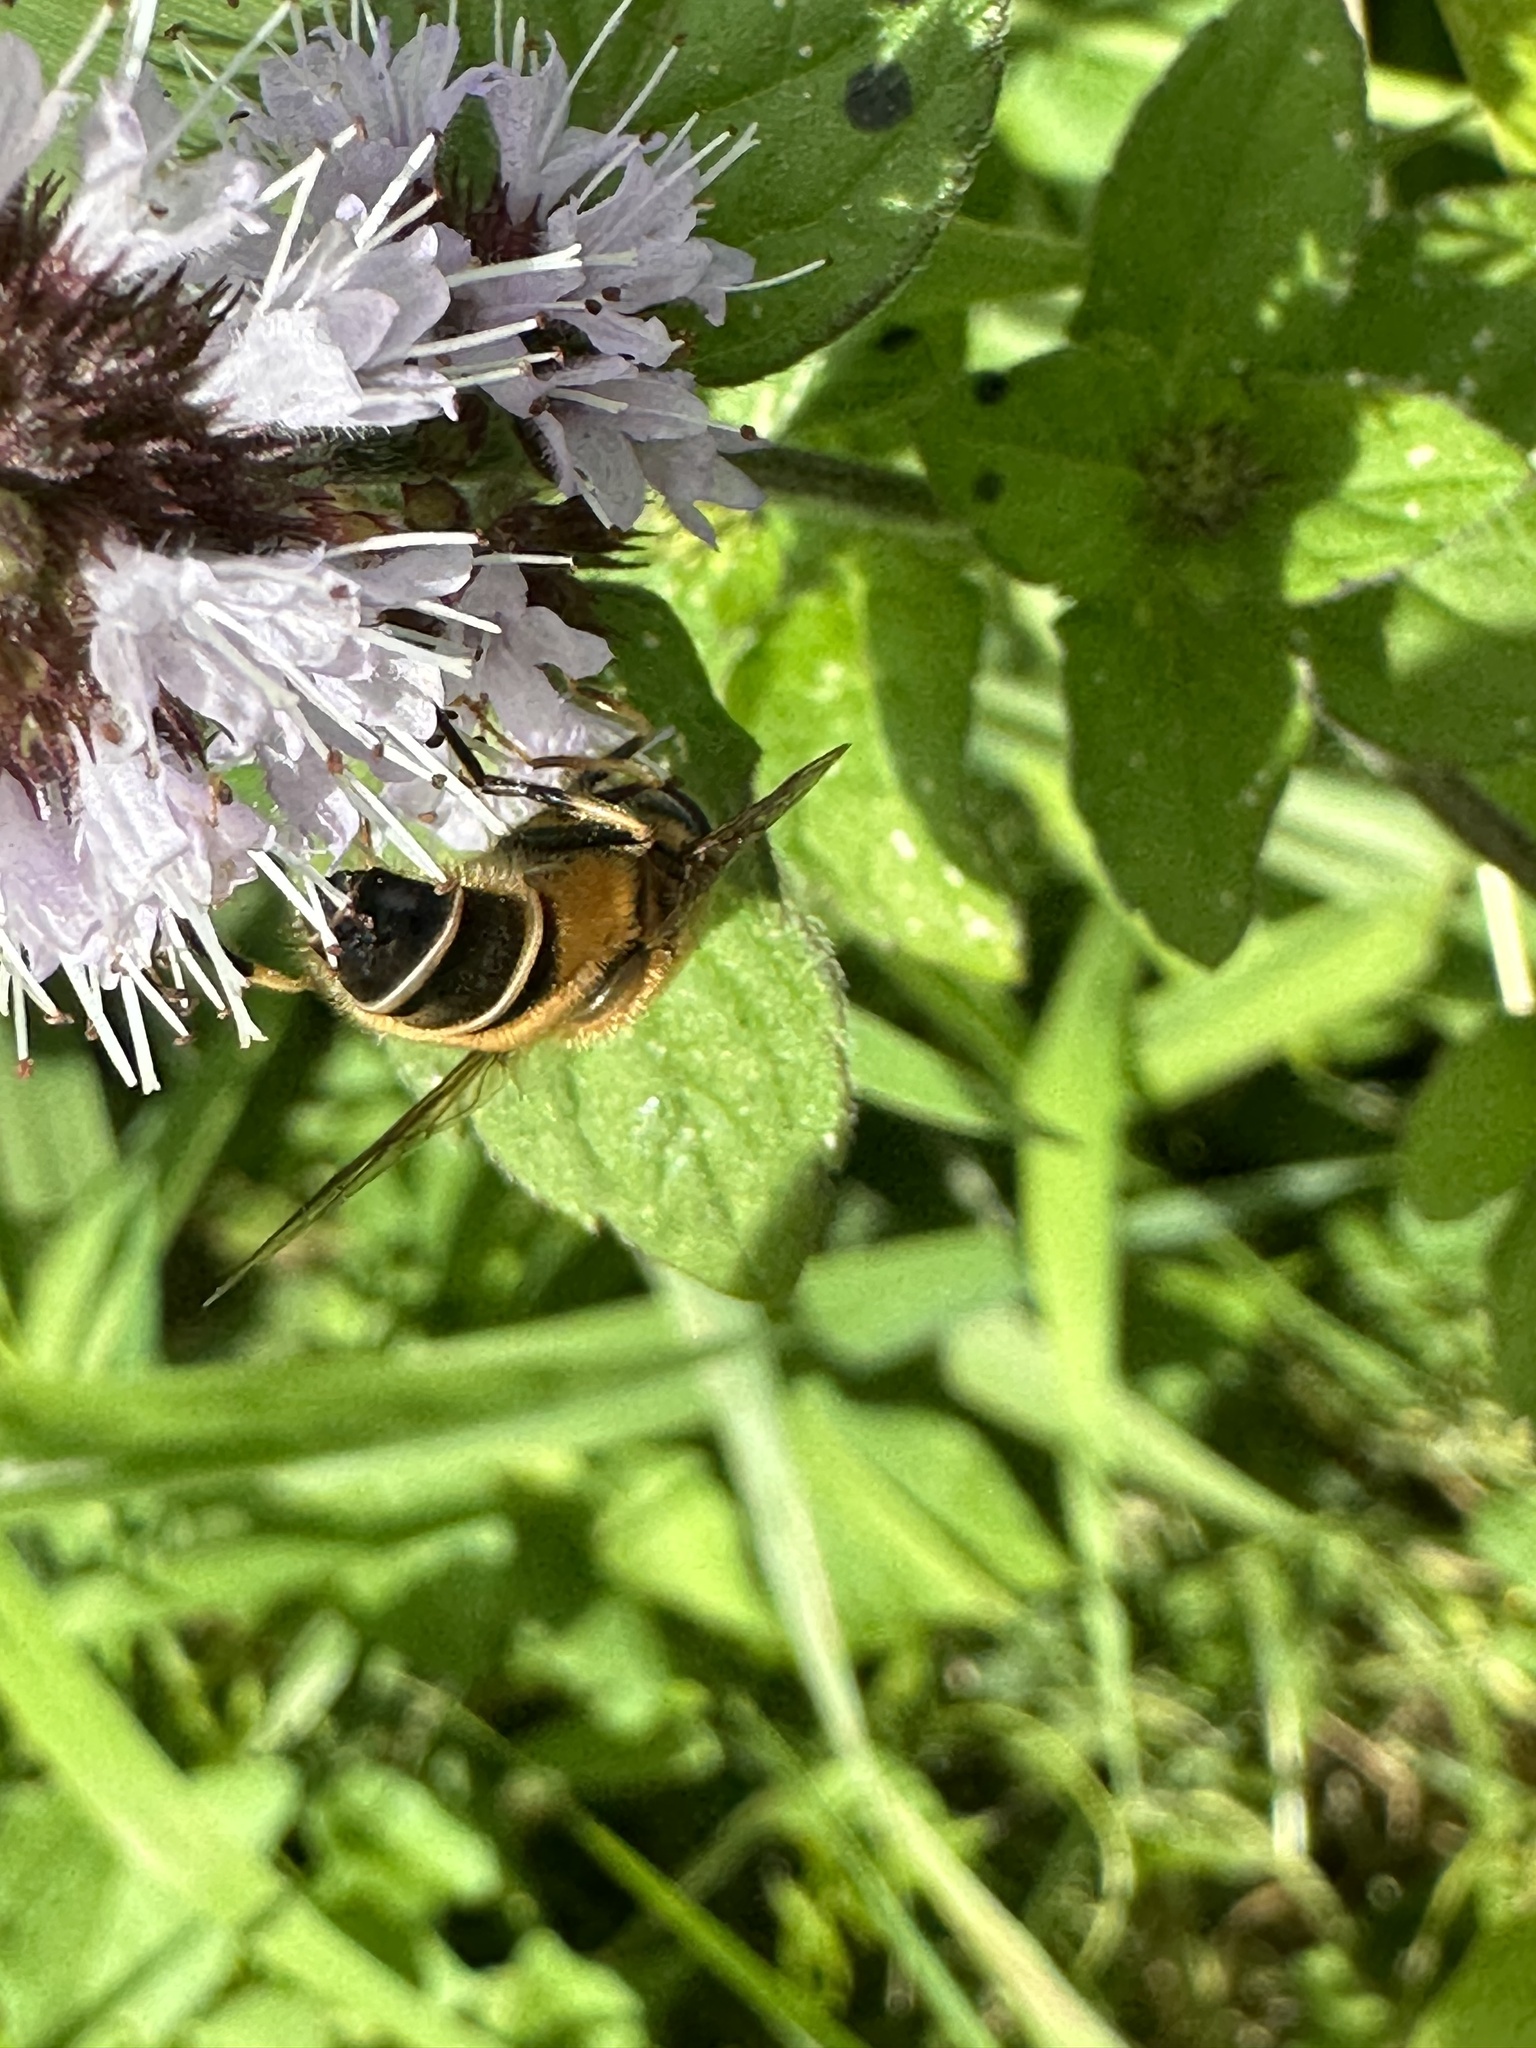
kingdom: Animalia
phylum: Arthropoda
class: Insecta
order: Diptera
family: Syrphidae
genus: Eristalis
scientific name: Eristalis pertinax
